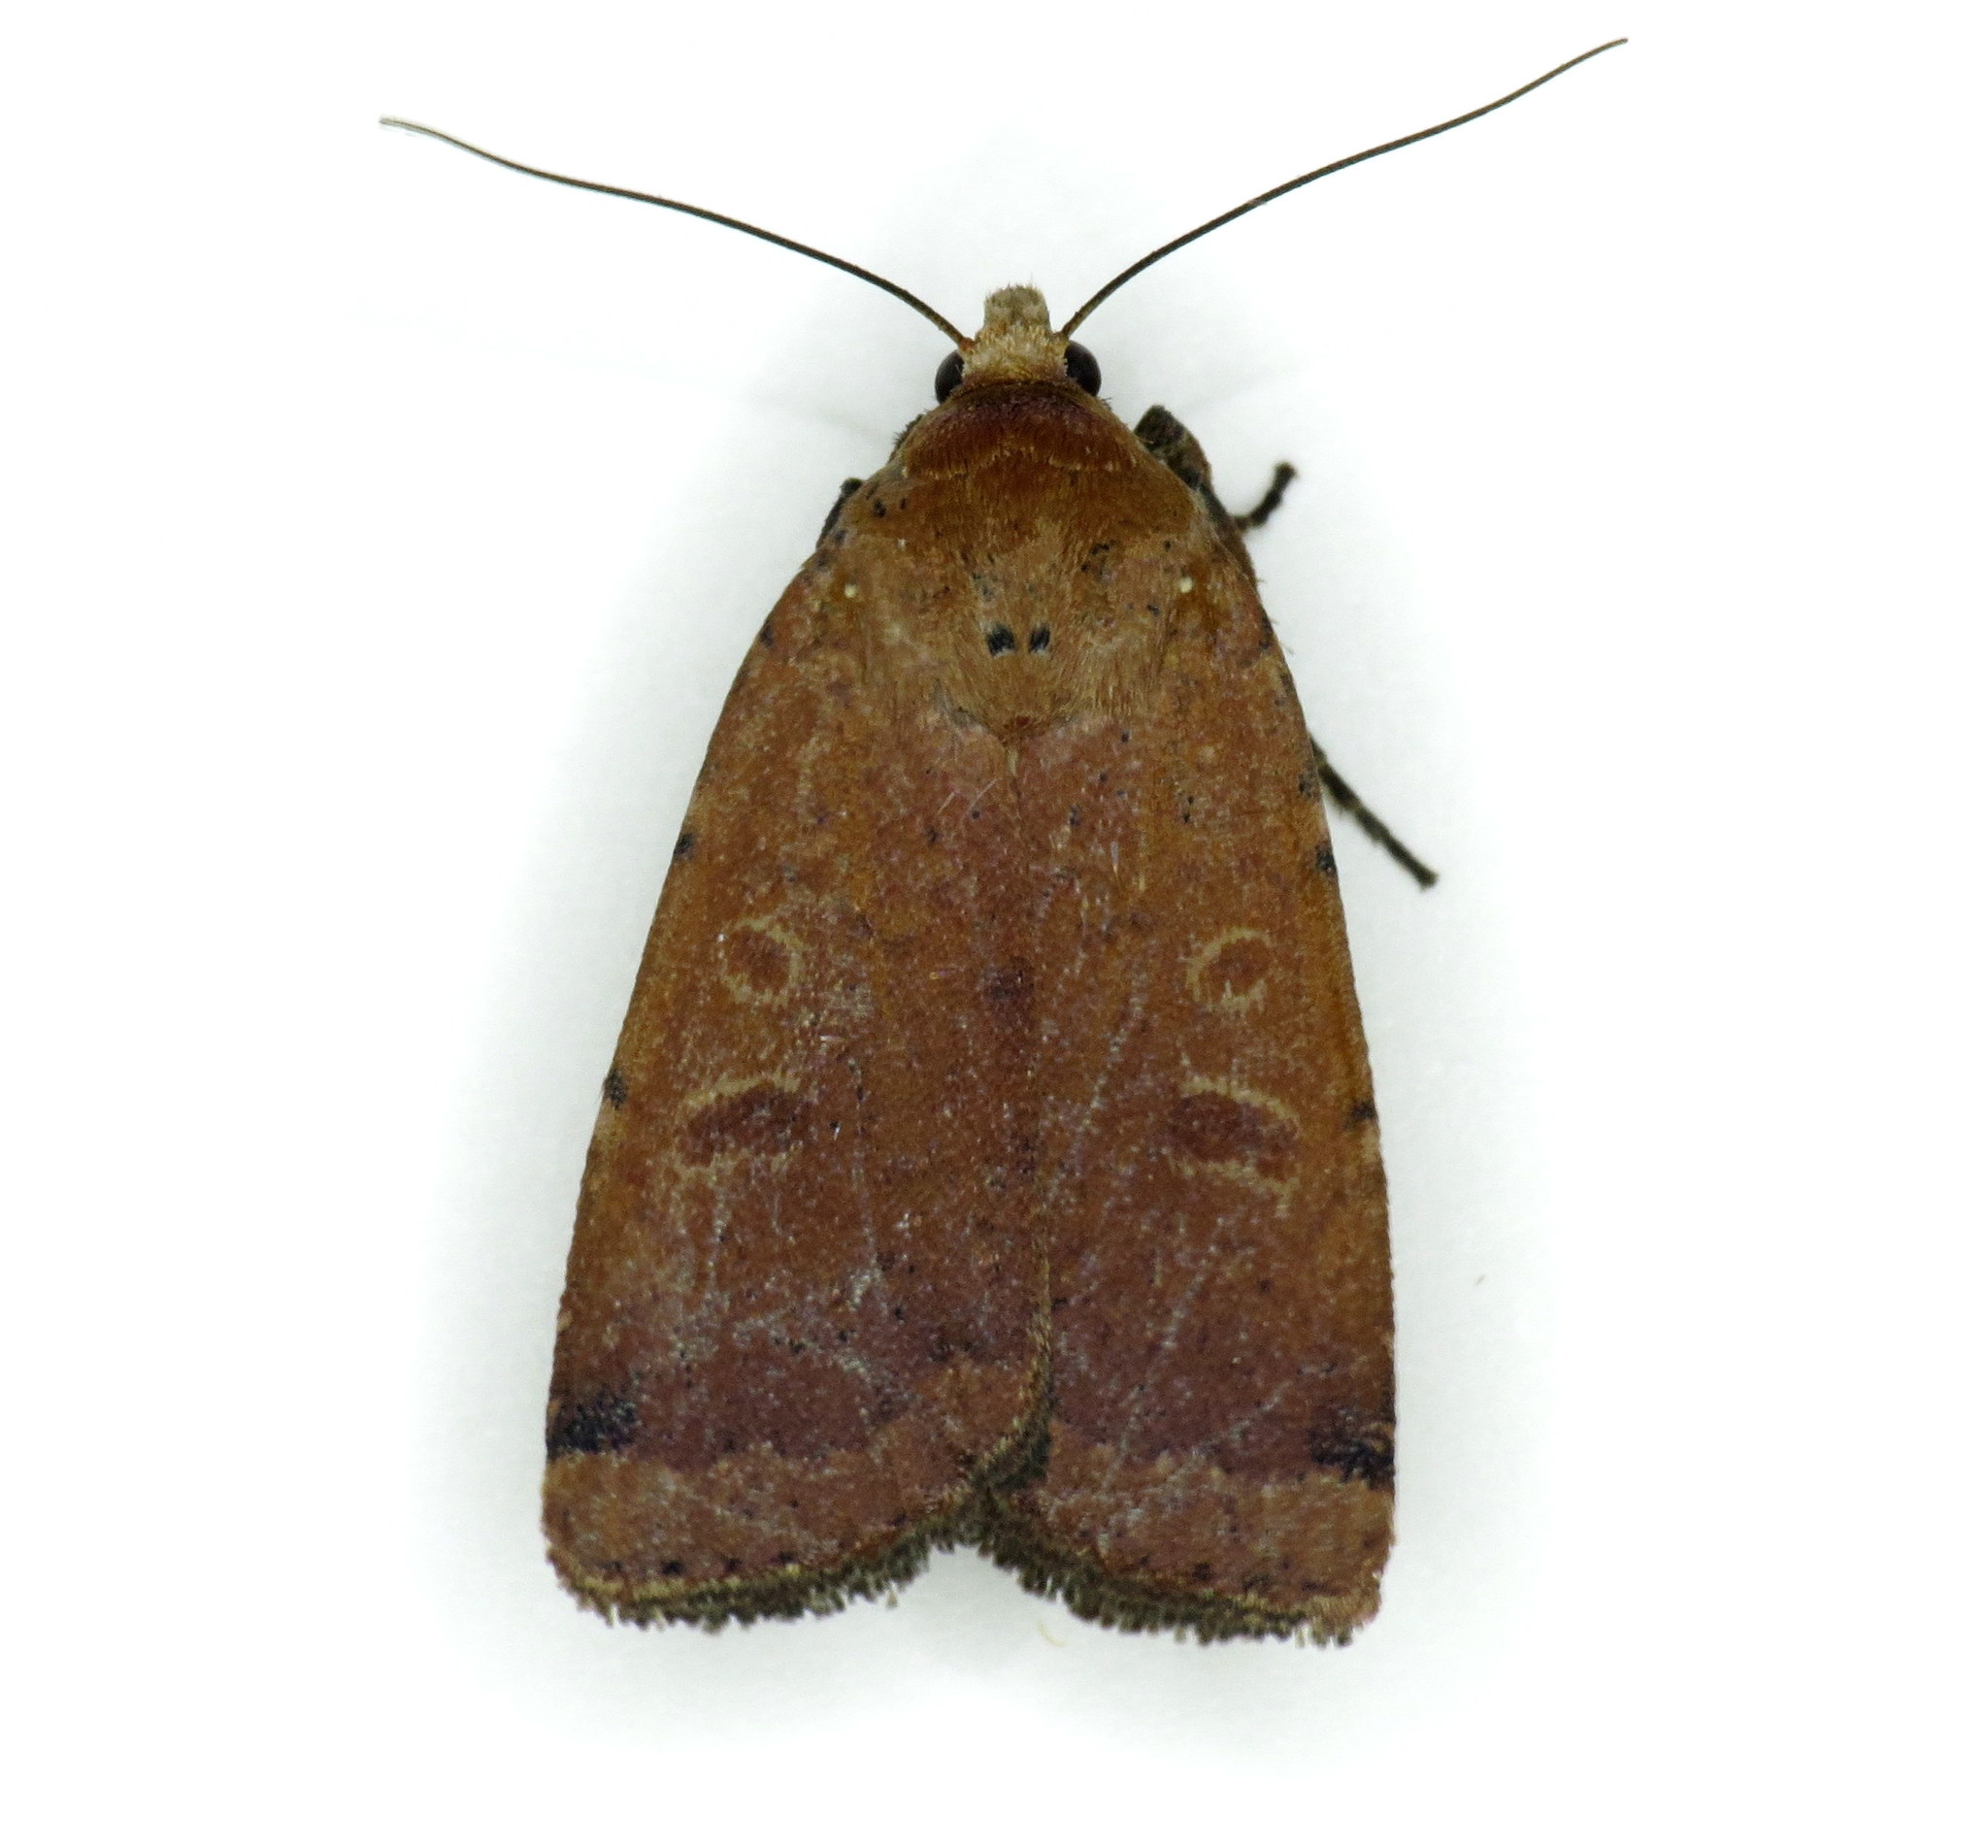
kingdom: Animalia
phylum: Arthropoda
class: Insecta
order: Lepidoptera
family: Noctuidae
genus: Abagrotis
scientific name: Abagrotis cupida
